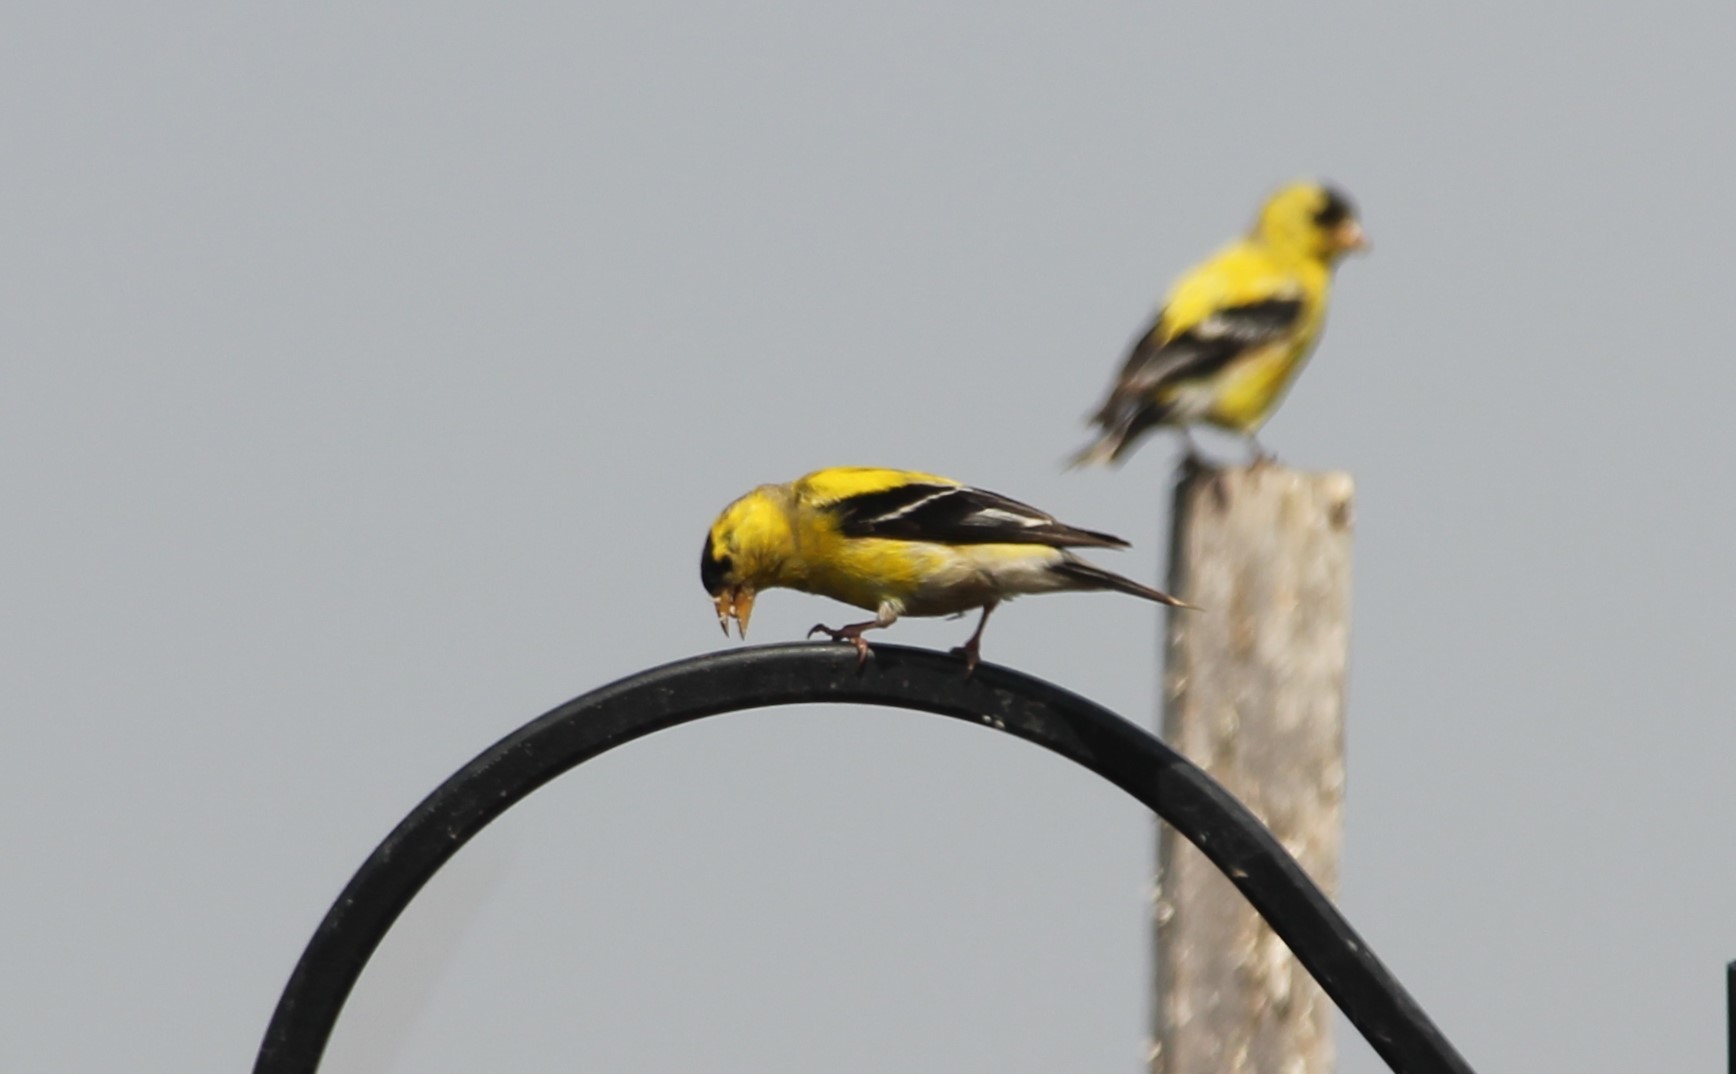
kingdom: Animalia
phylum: Chordata
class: Aves
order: Passeriformes
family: Fringillidae
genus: Spinus
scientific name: Spinus tristis
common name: American goldfinch
